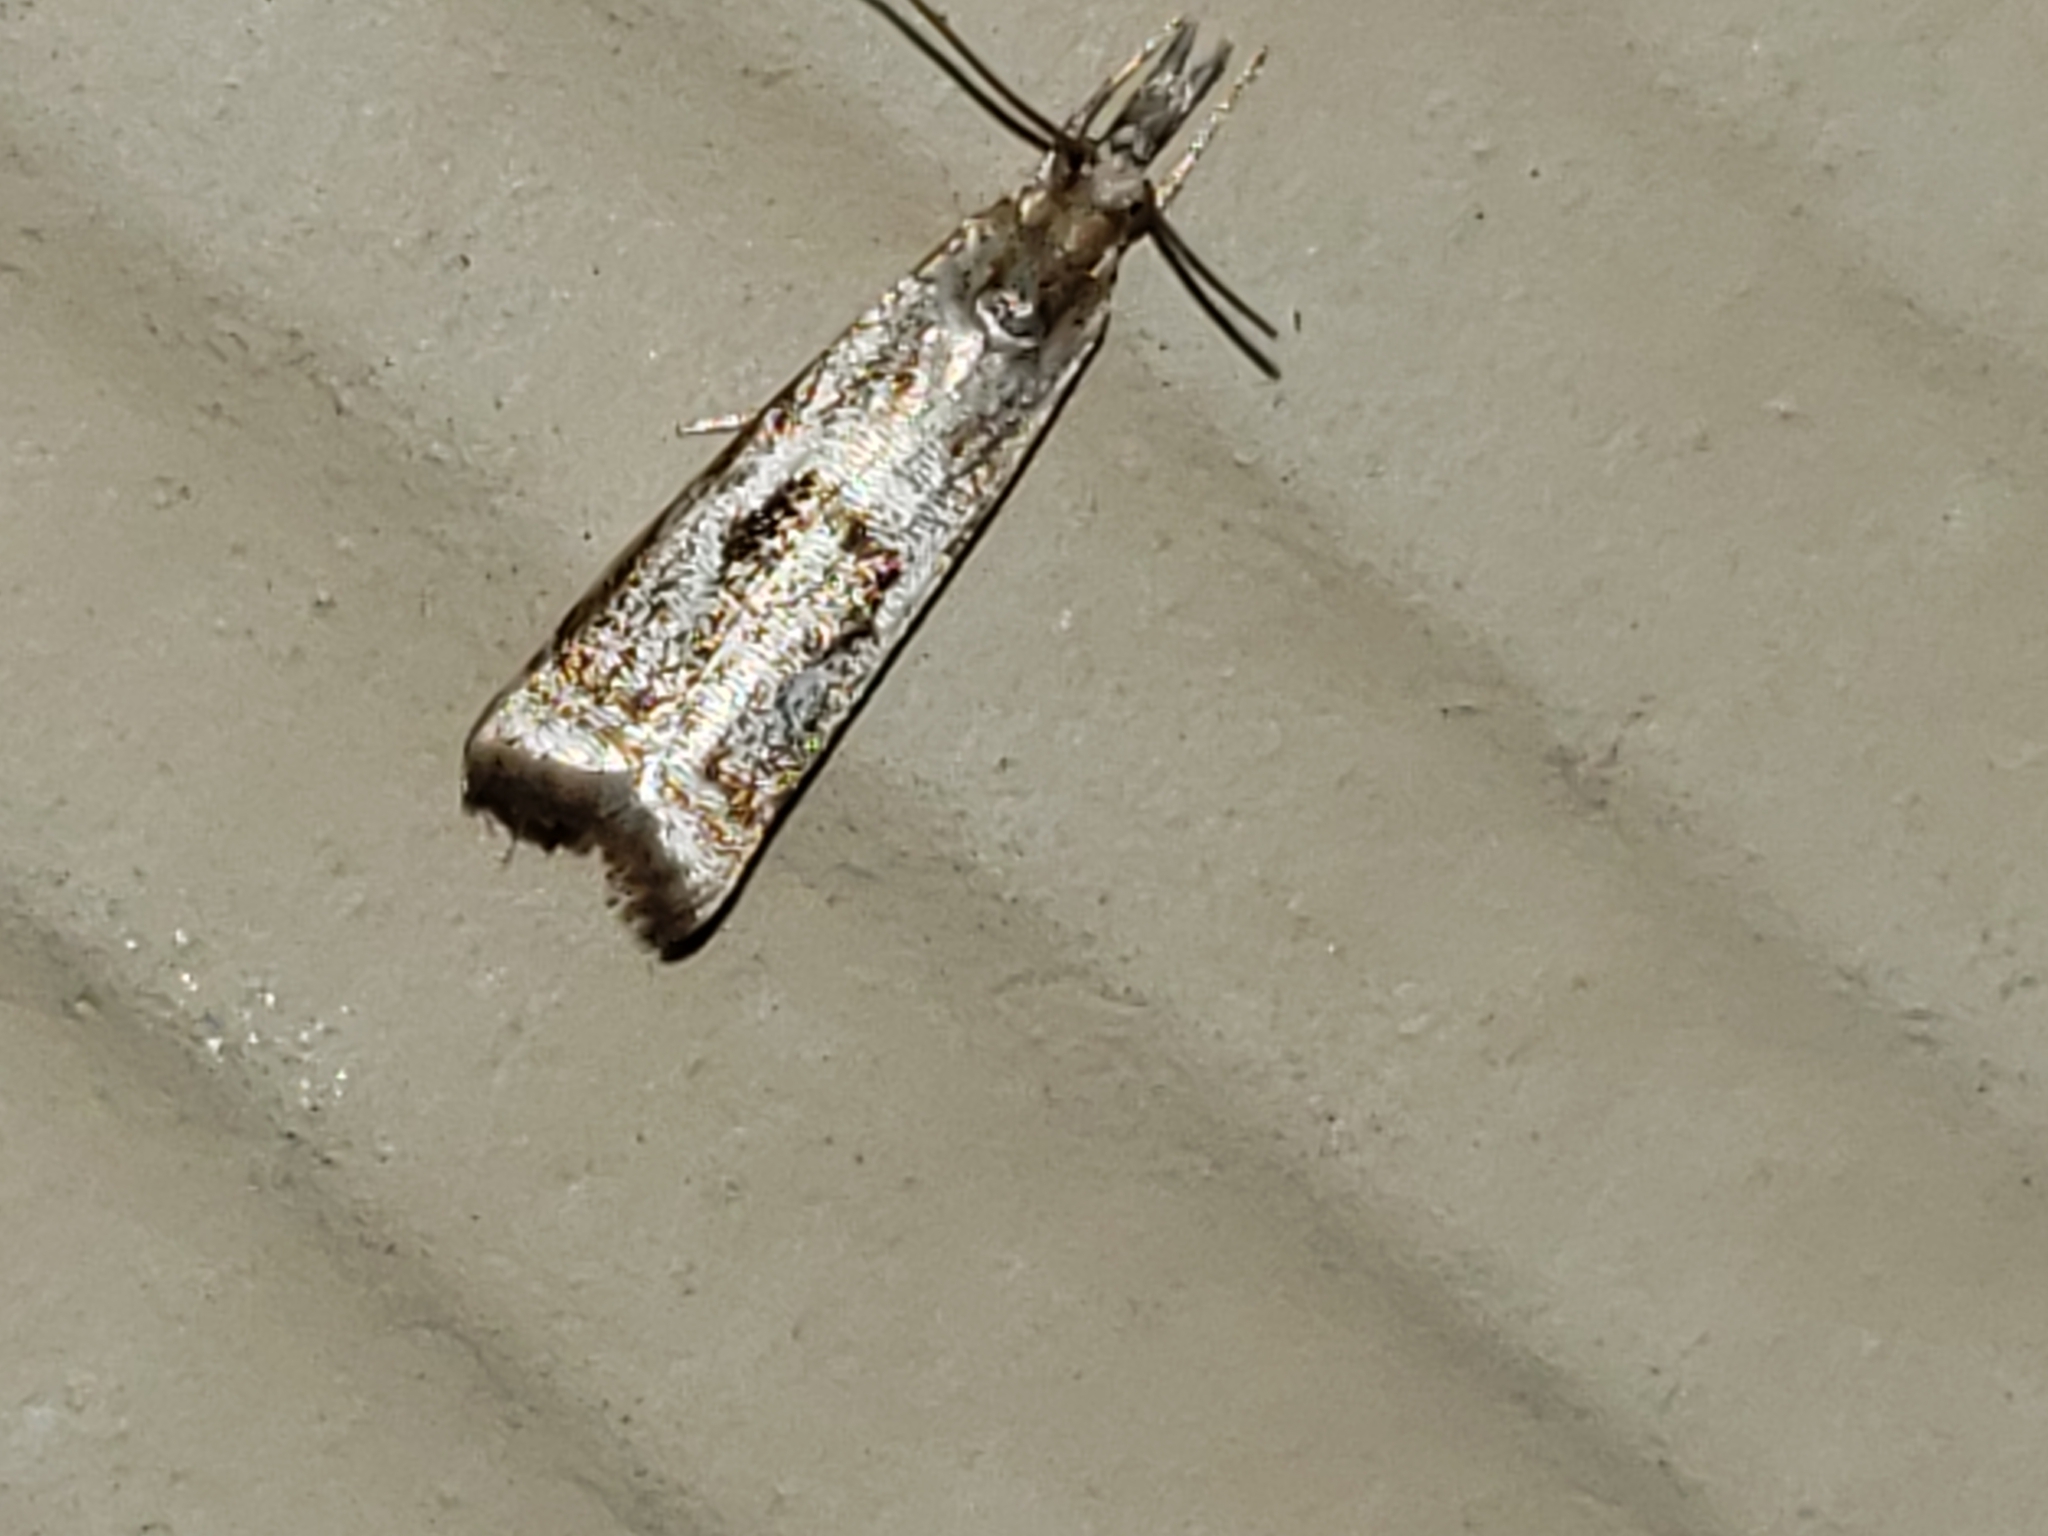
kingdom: Animalia
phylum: Arthropoda
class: Insecta
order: Lepidoptera
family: Crambidae
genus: Microcrambus
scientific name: Microcrambus elegans
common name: Elegant grass-veneer
